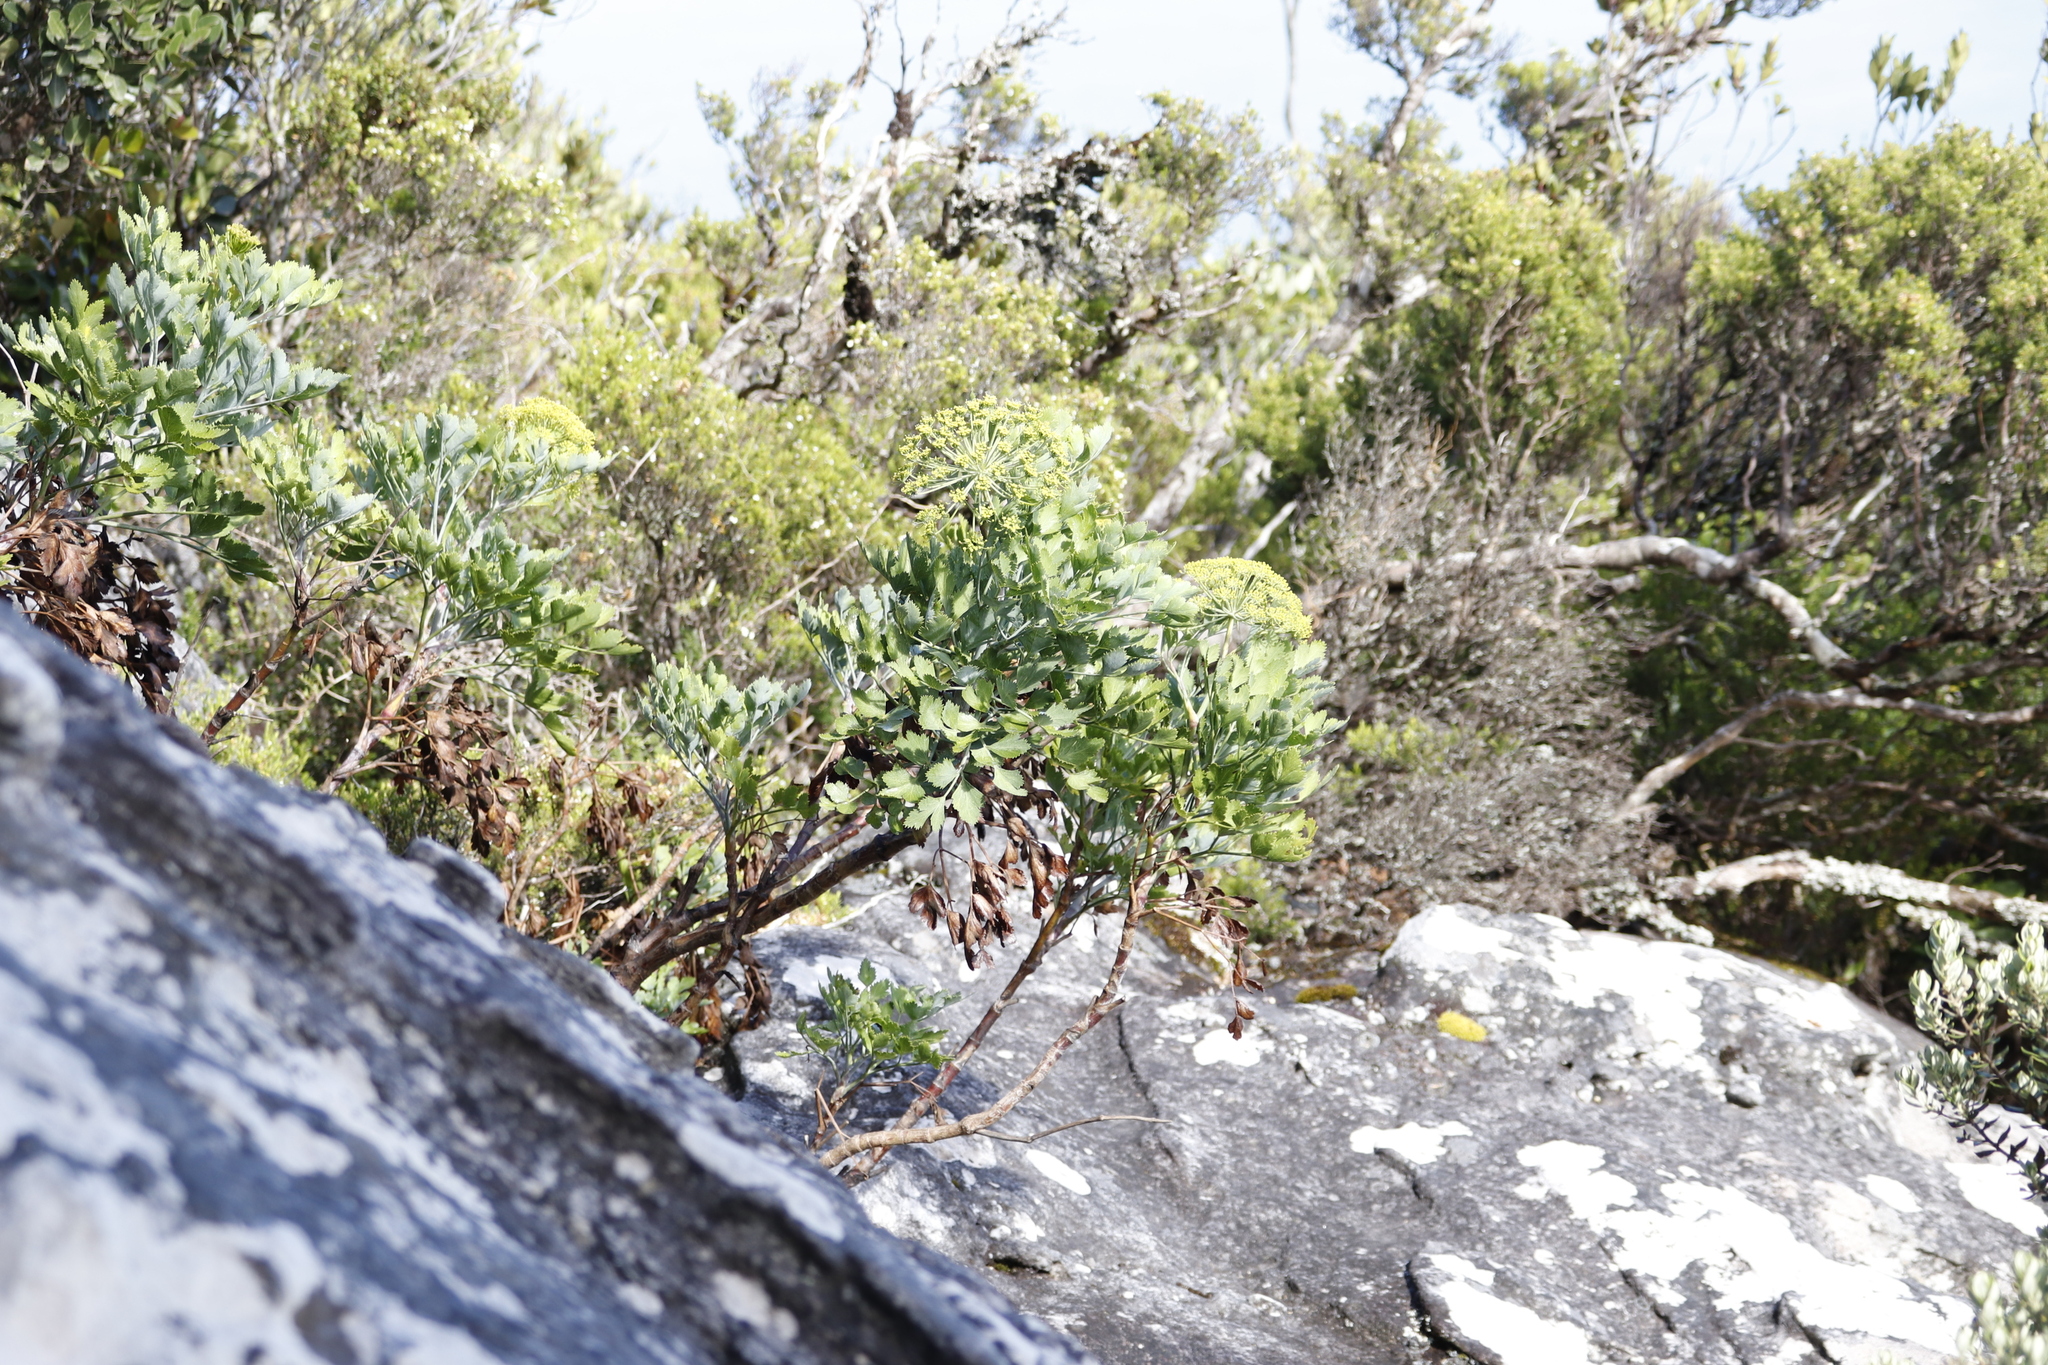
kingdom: Plantae
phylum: Tracheophyta
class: Magnoliopsida
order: Apiales
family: Apiaceae
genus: Notobubon
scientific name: Notobubon galbanum
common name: Blisterbush
